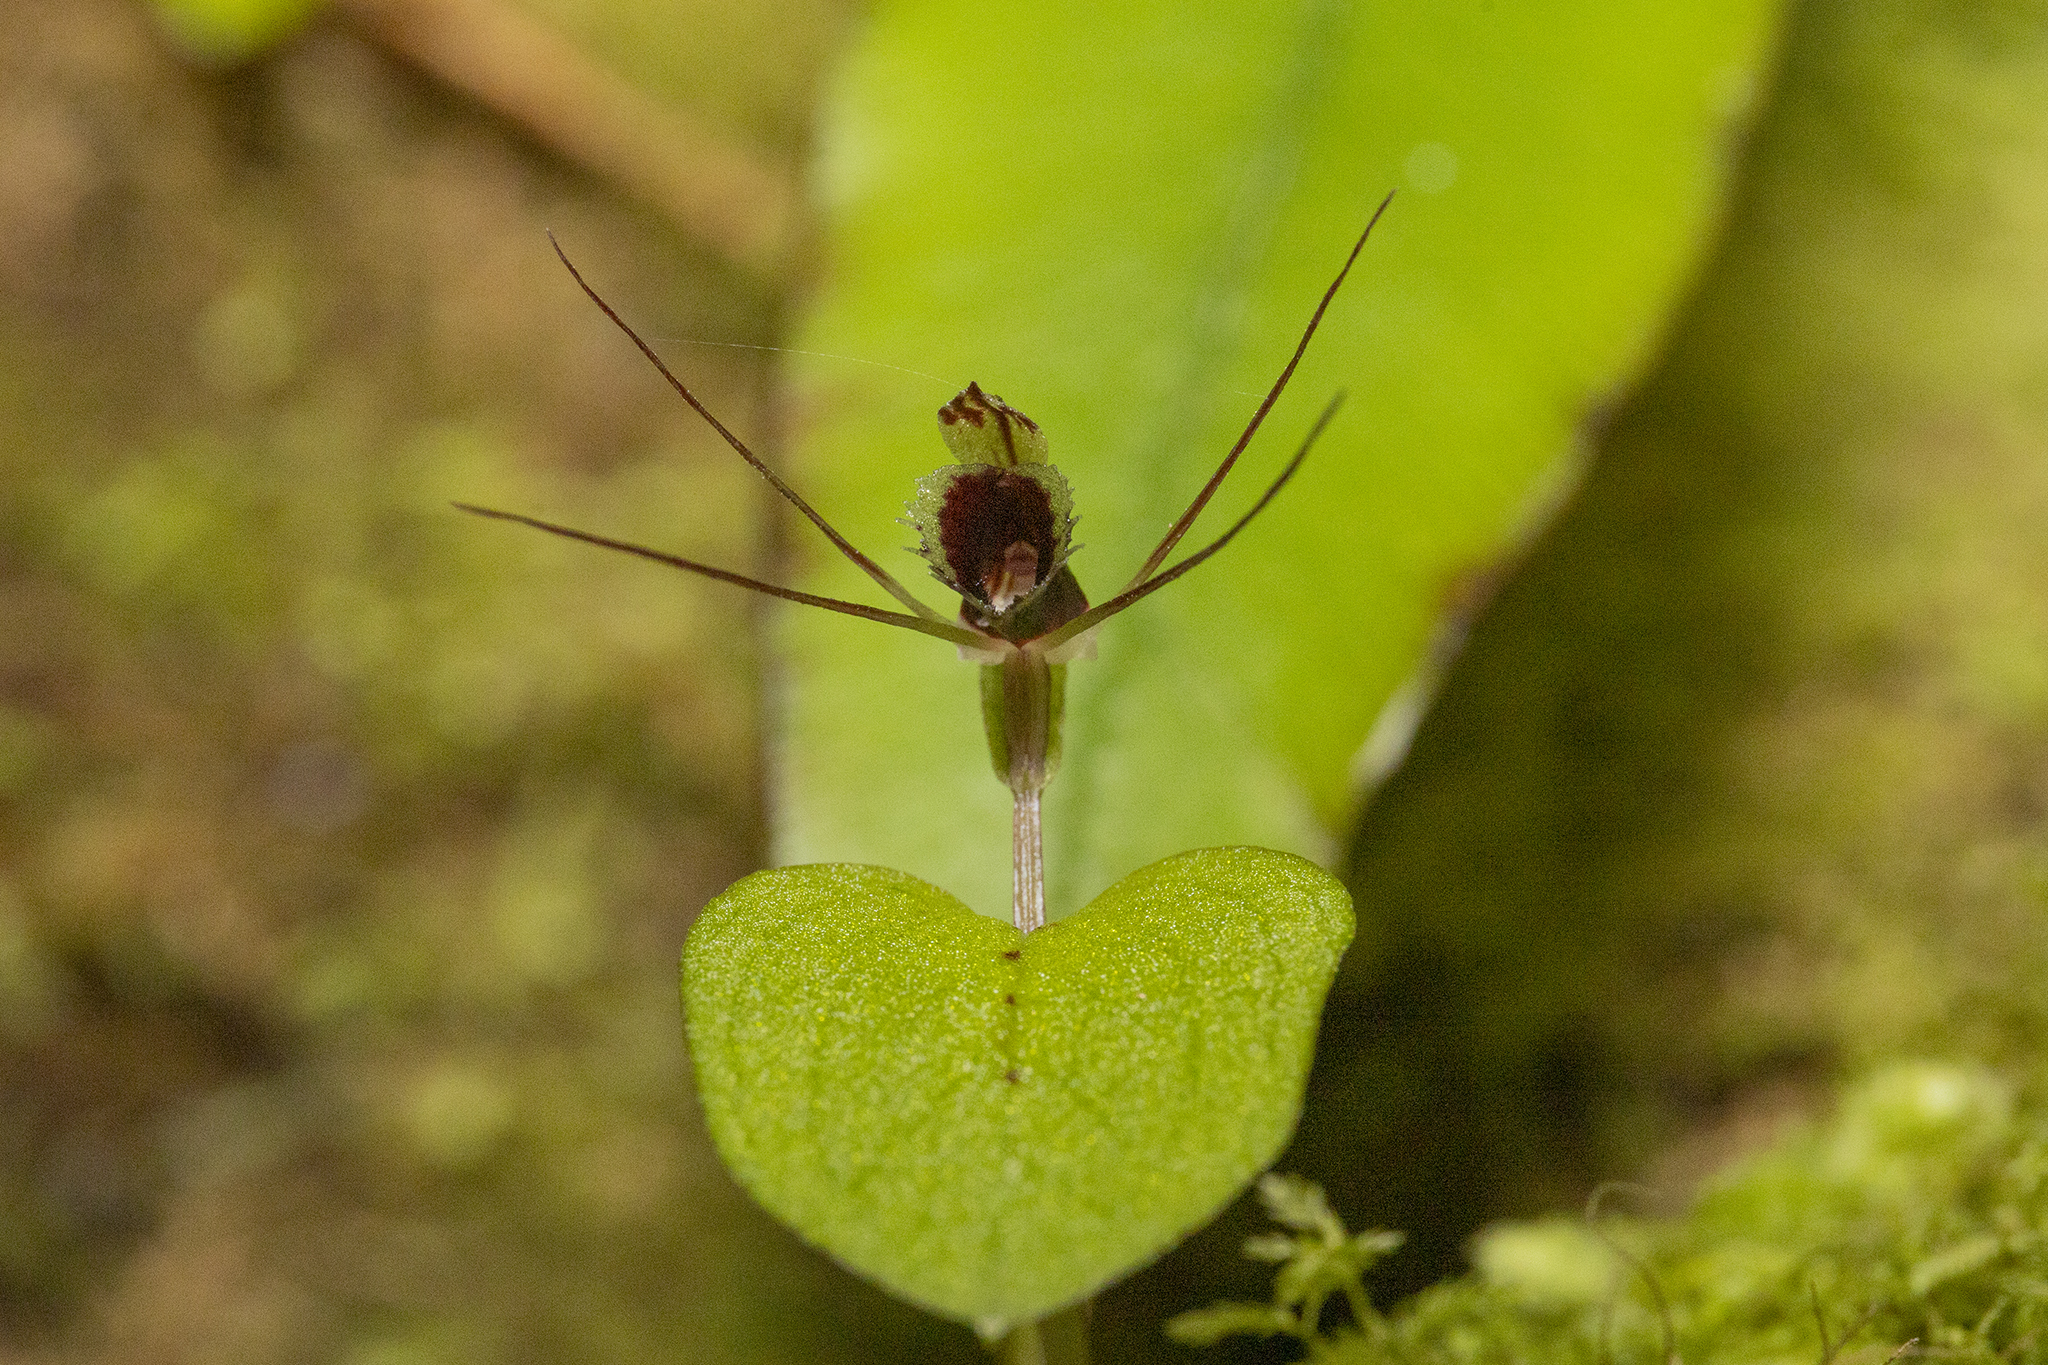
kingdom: Plantae
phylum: Tracheophyta
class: Liliopsida
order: Asparagales
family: Orchidaceae
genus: Corybas
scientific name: Corybas oblongus
